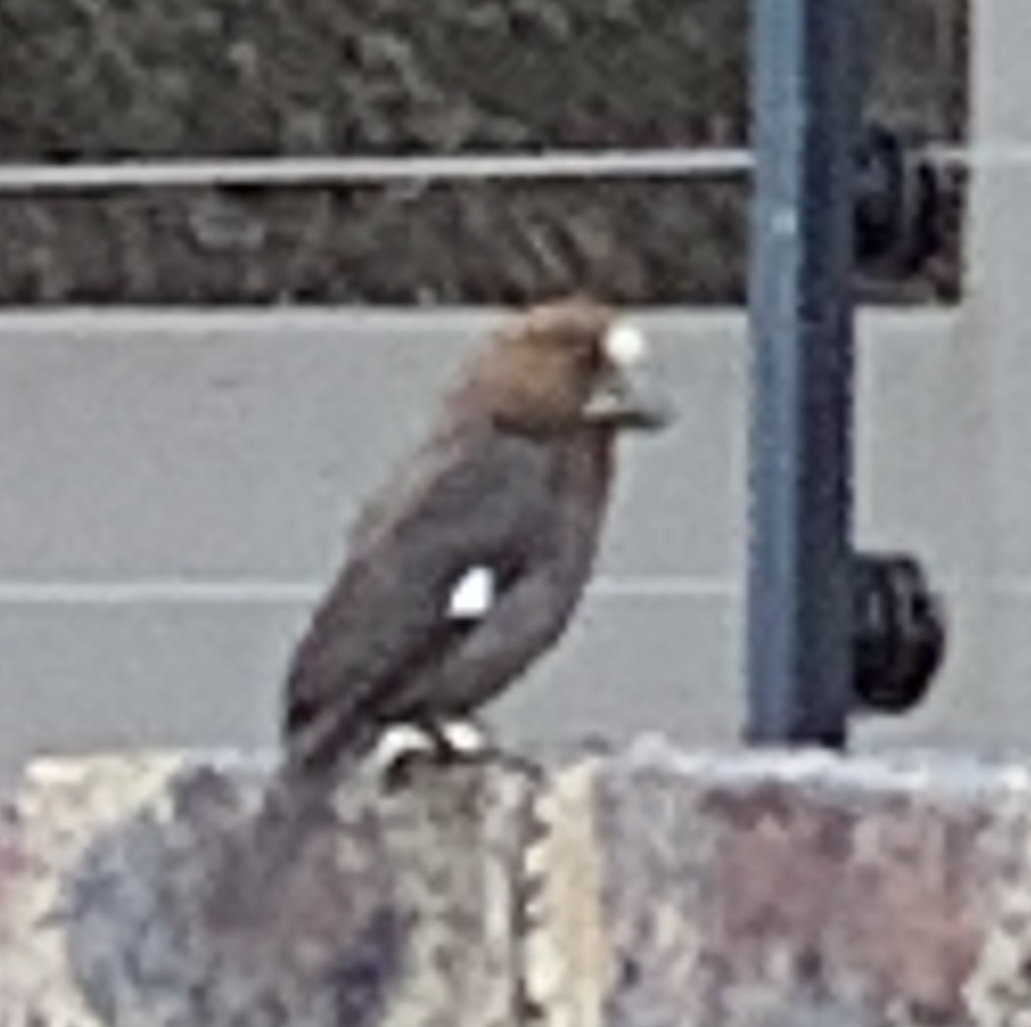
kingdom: Animalia
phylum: Chordata
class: Aves
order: Passeriformes
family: Ploceidae
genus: Amblyospiza
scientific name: Amblyospiza albifrons
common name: Thick-billed weaver
